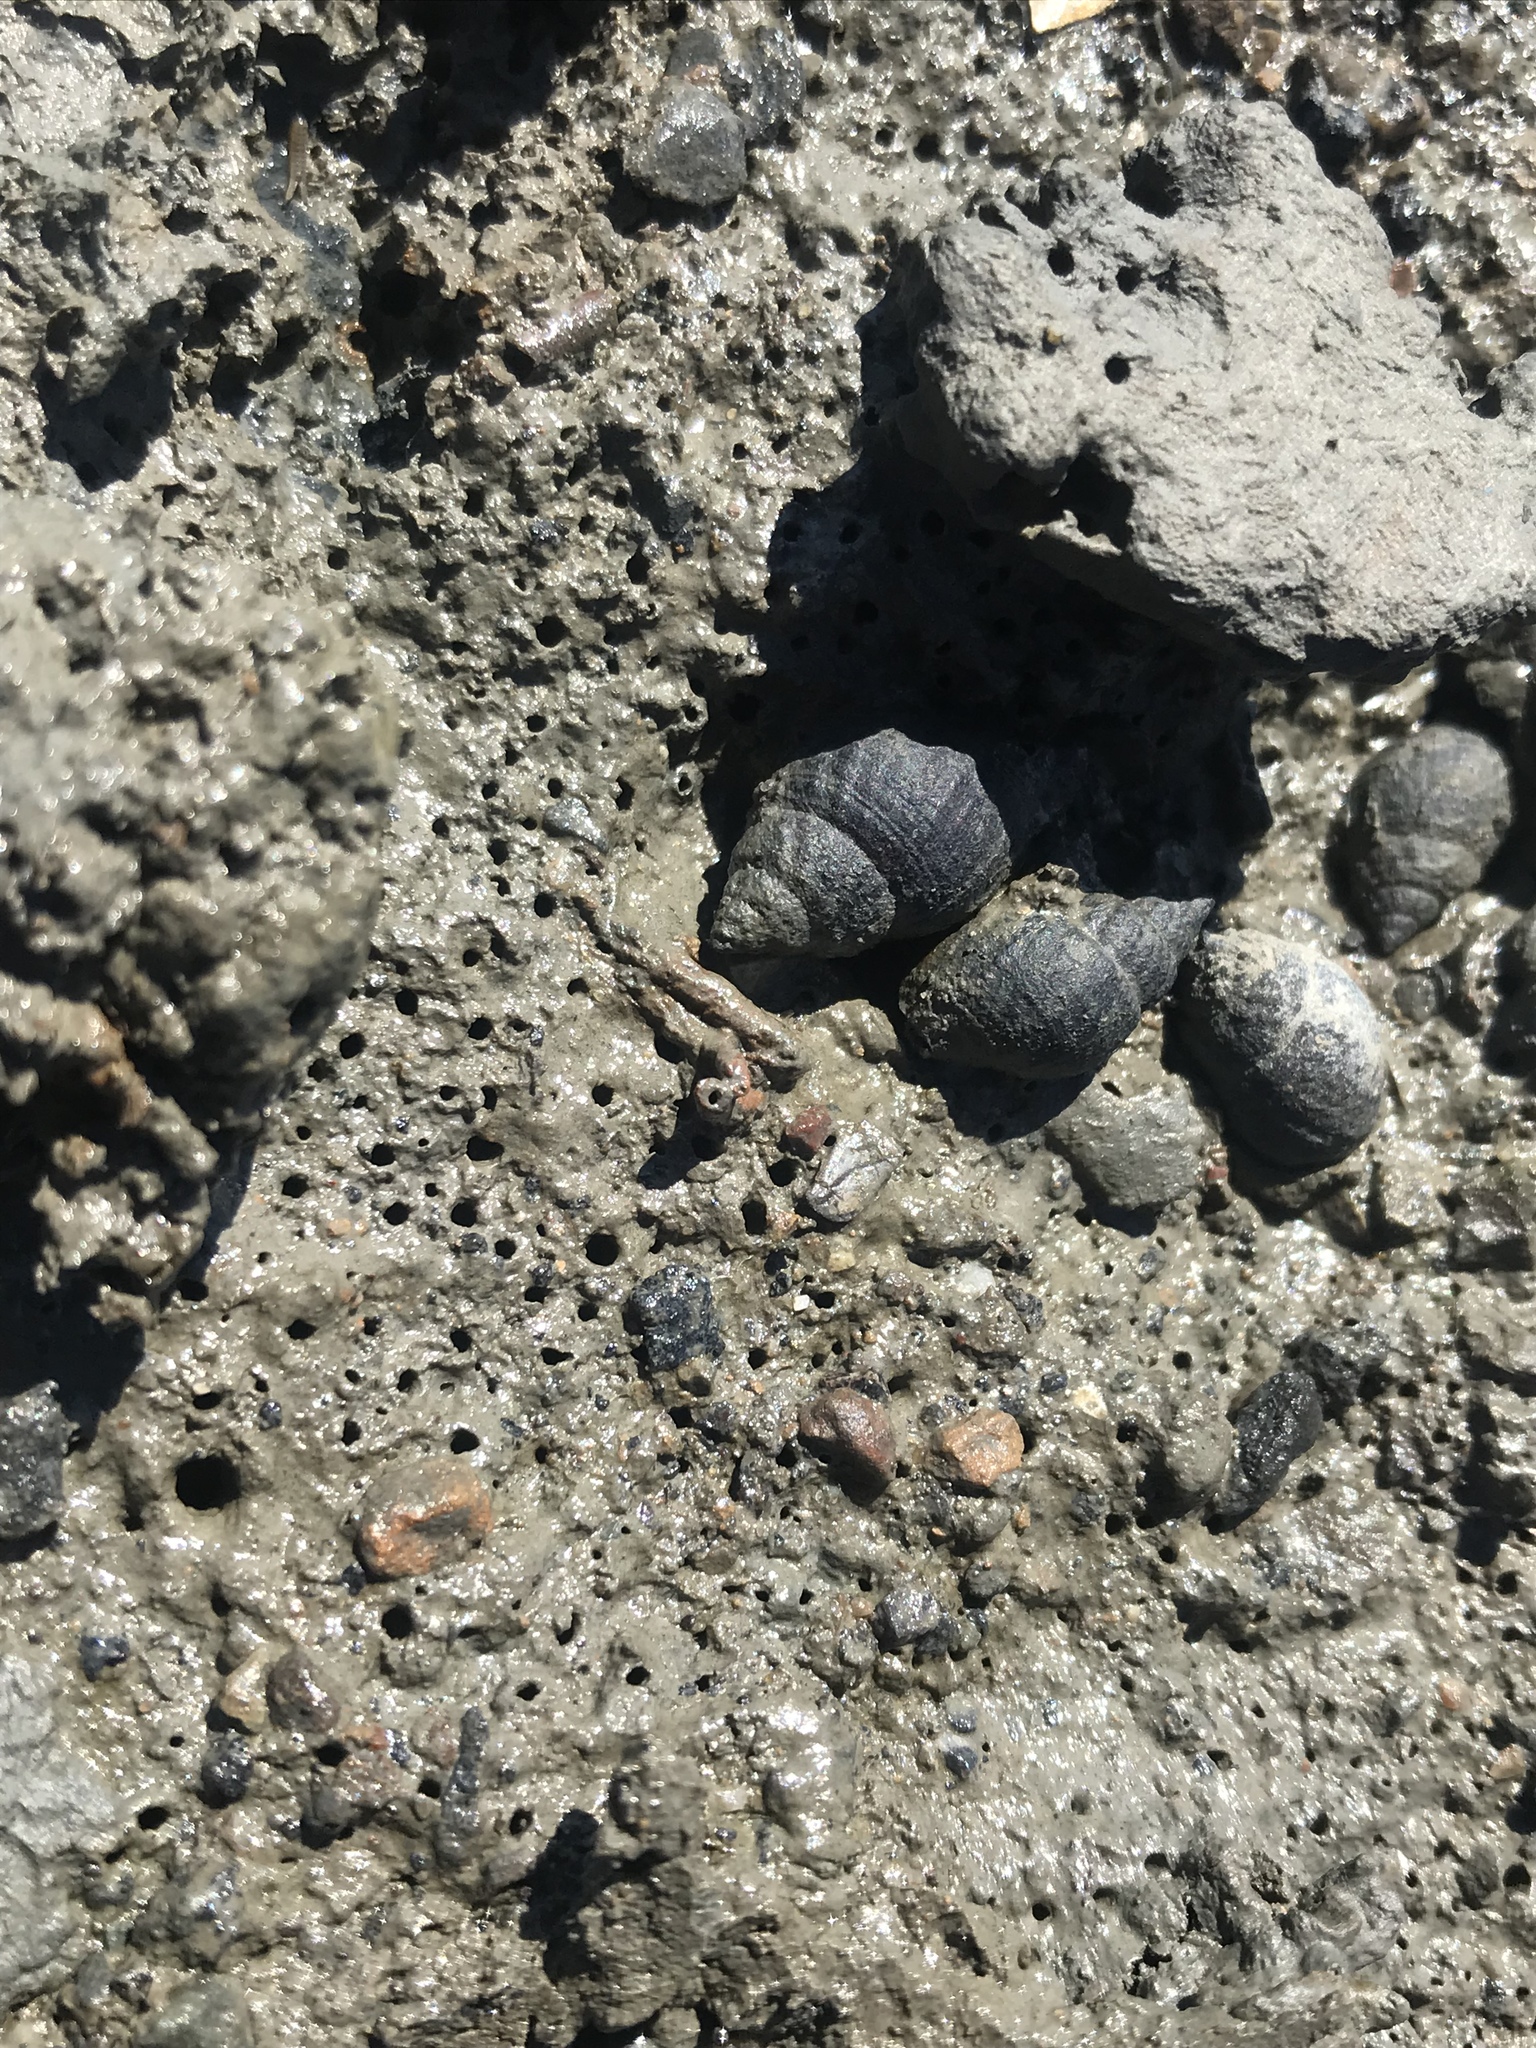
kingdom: Animalia
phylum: Mollusca
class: Gastropoda
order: Neogastropoda
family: Nassariidae
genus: Ilyanassa
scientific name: Ilyanassa obsoleta
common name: Eastern mudsnail
